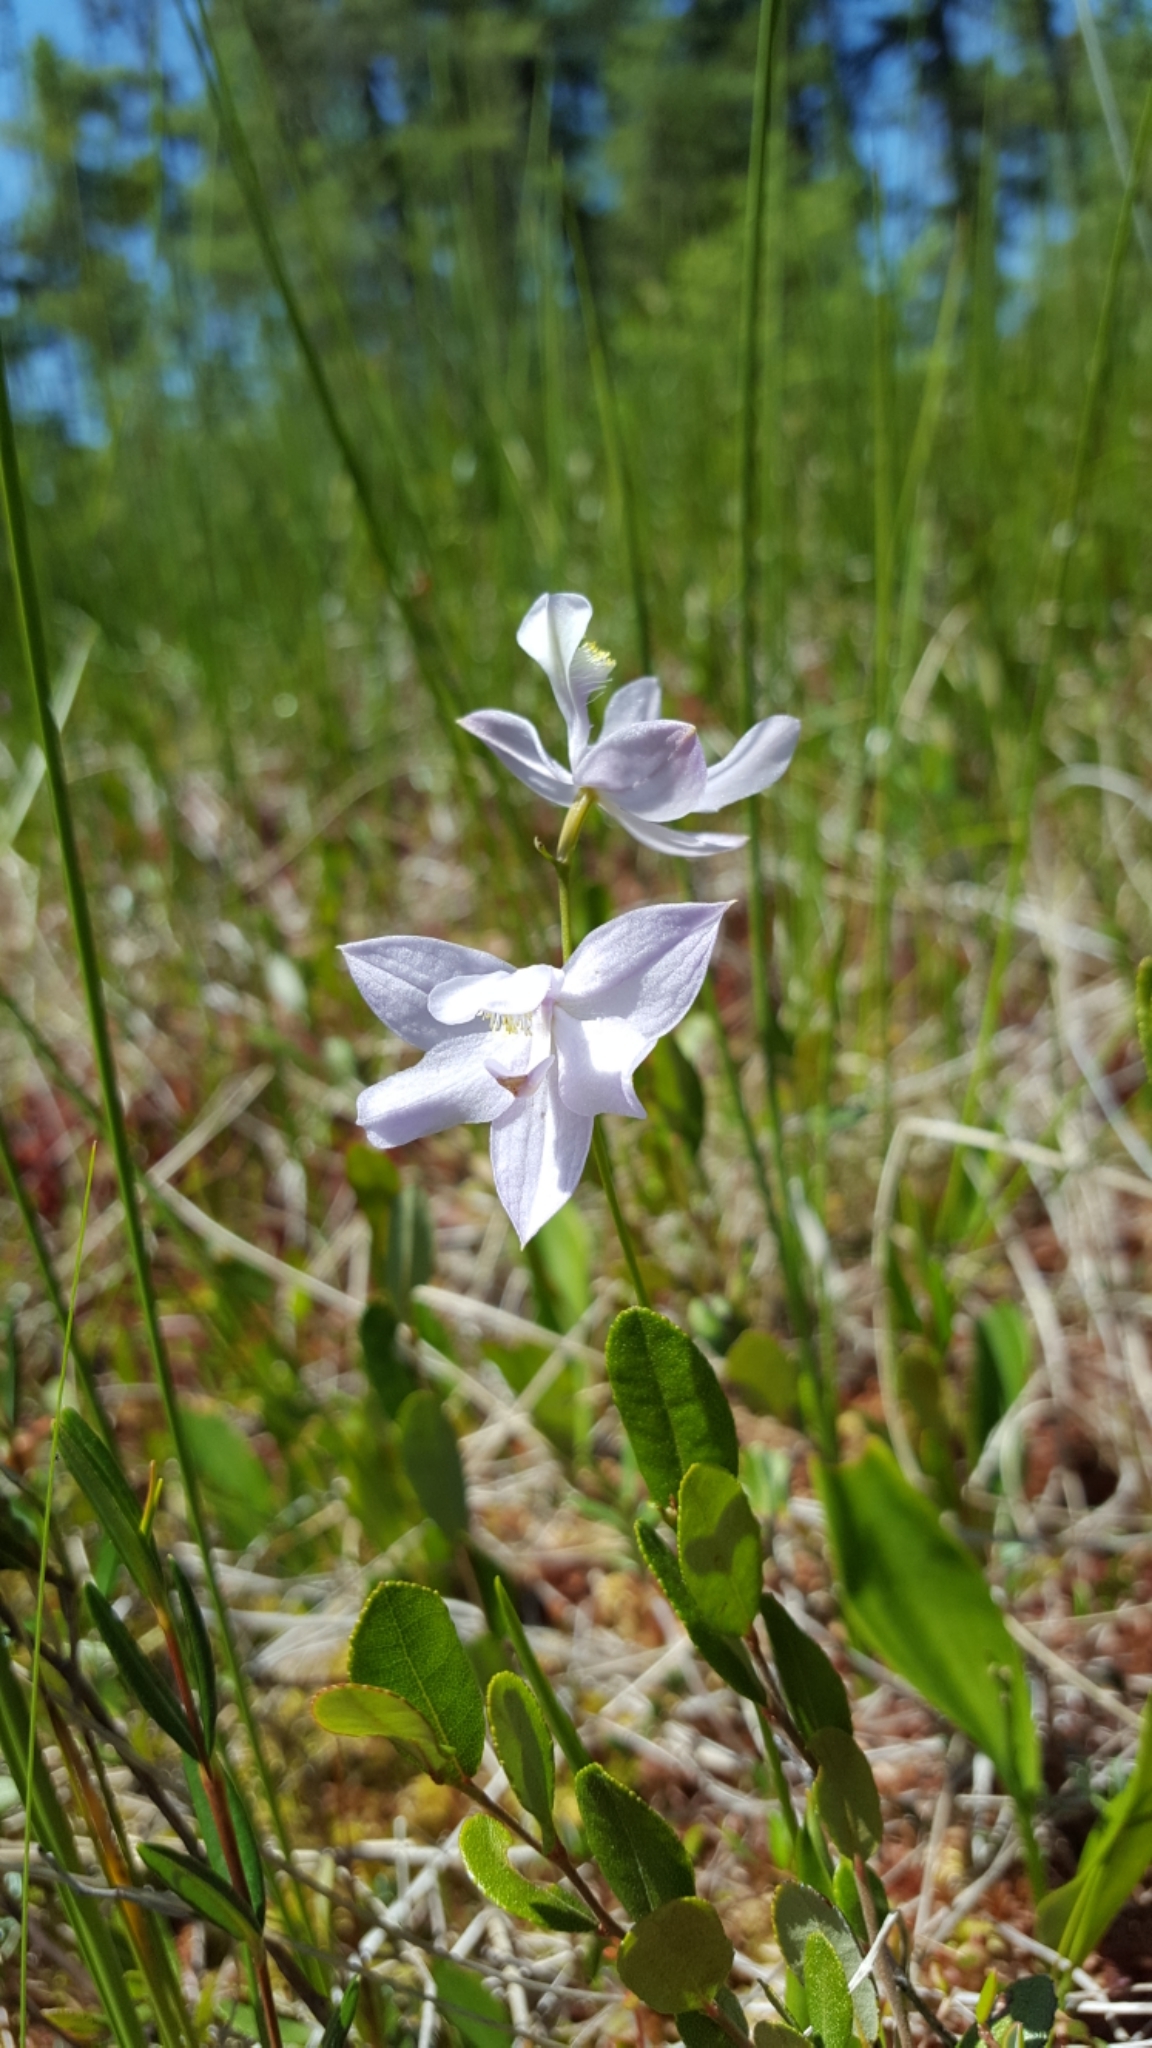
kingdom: Plantae
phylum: Tracheophyta
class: Liliopsida
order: Asparagales
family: Orchidaceae
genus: Calopogon
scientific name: Calopogon tuberosus
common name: Grass-pink
